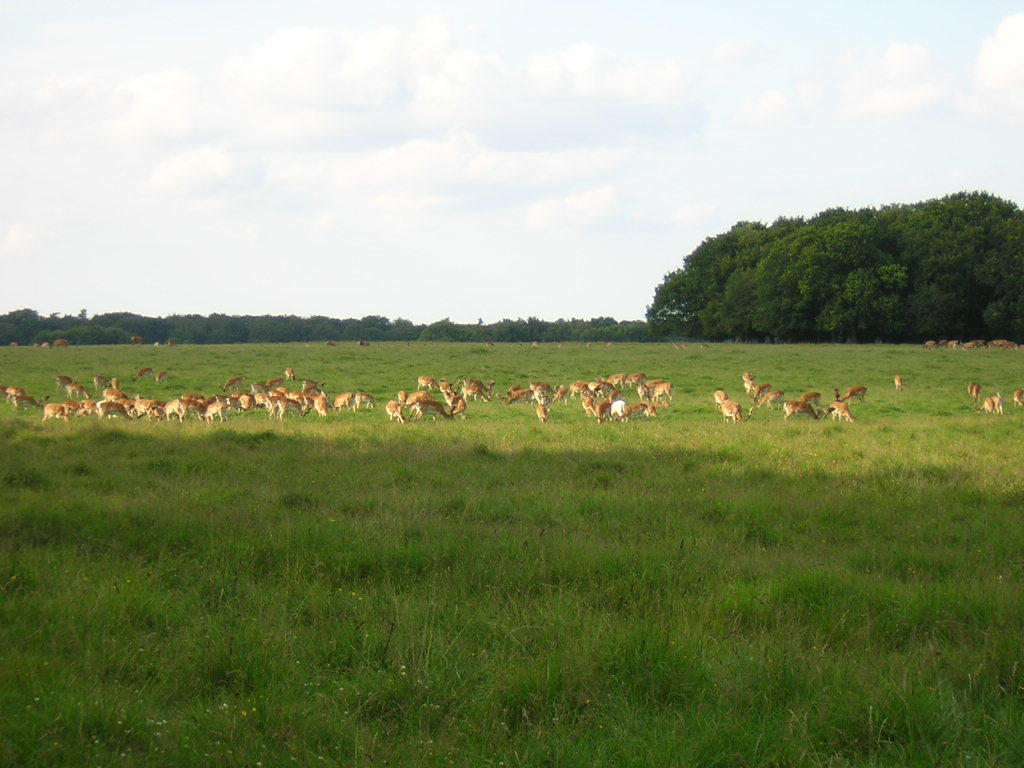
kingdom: Animalia
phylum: Chordata
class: Mammalia
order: Artiodactyla
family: Cervidae
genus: Dama
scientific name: Dama dama
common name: Fallow deer
